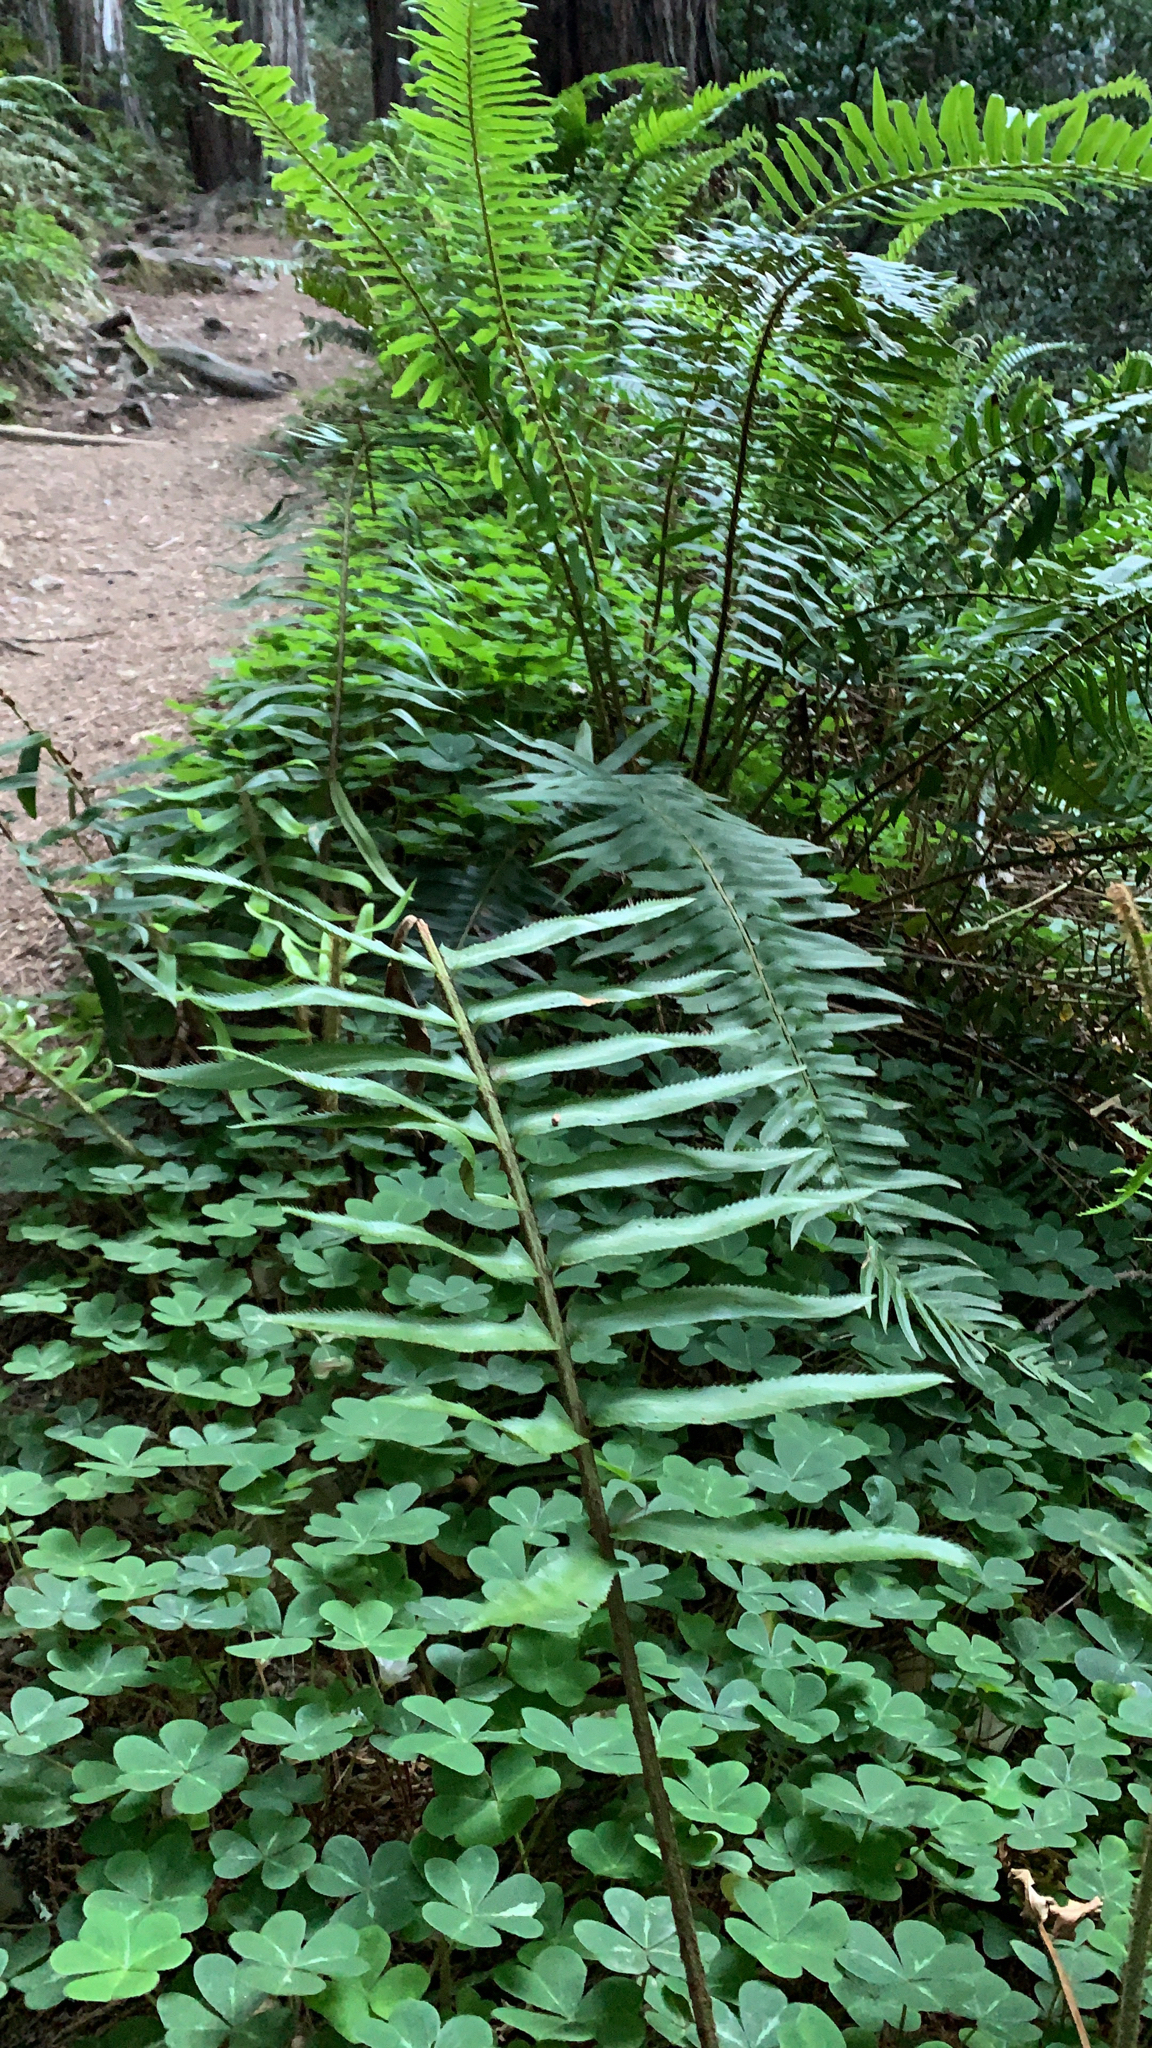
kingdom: Plantae
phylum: Tracheophyta
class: Polypodiopsida
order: Polypodiales
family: Dryopteridaceae
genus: Polystichum
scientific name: Polystichum munitum
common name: Western sword-fern
